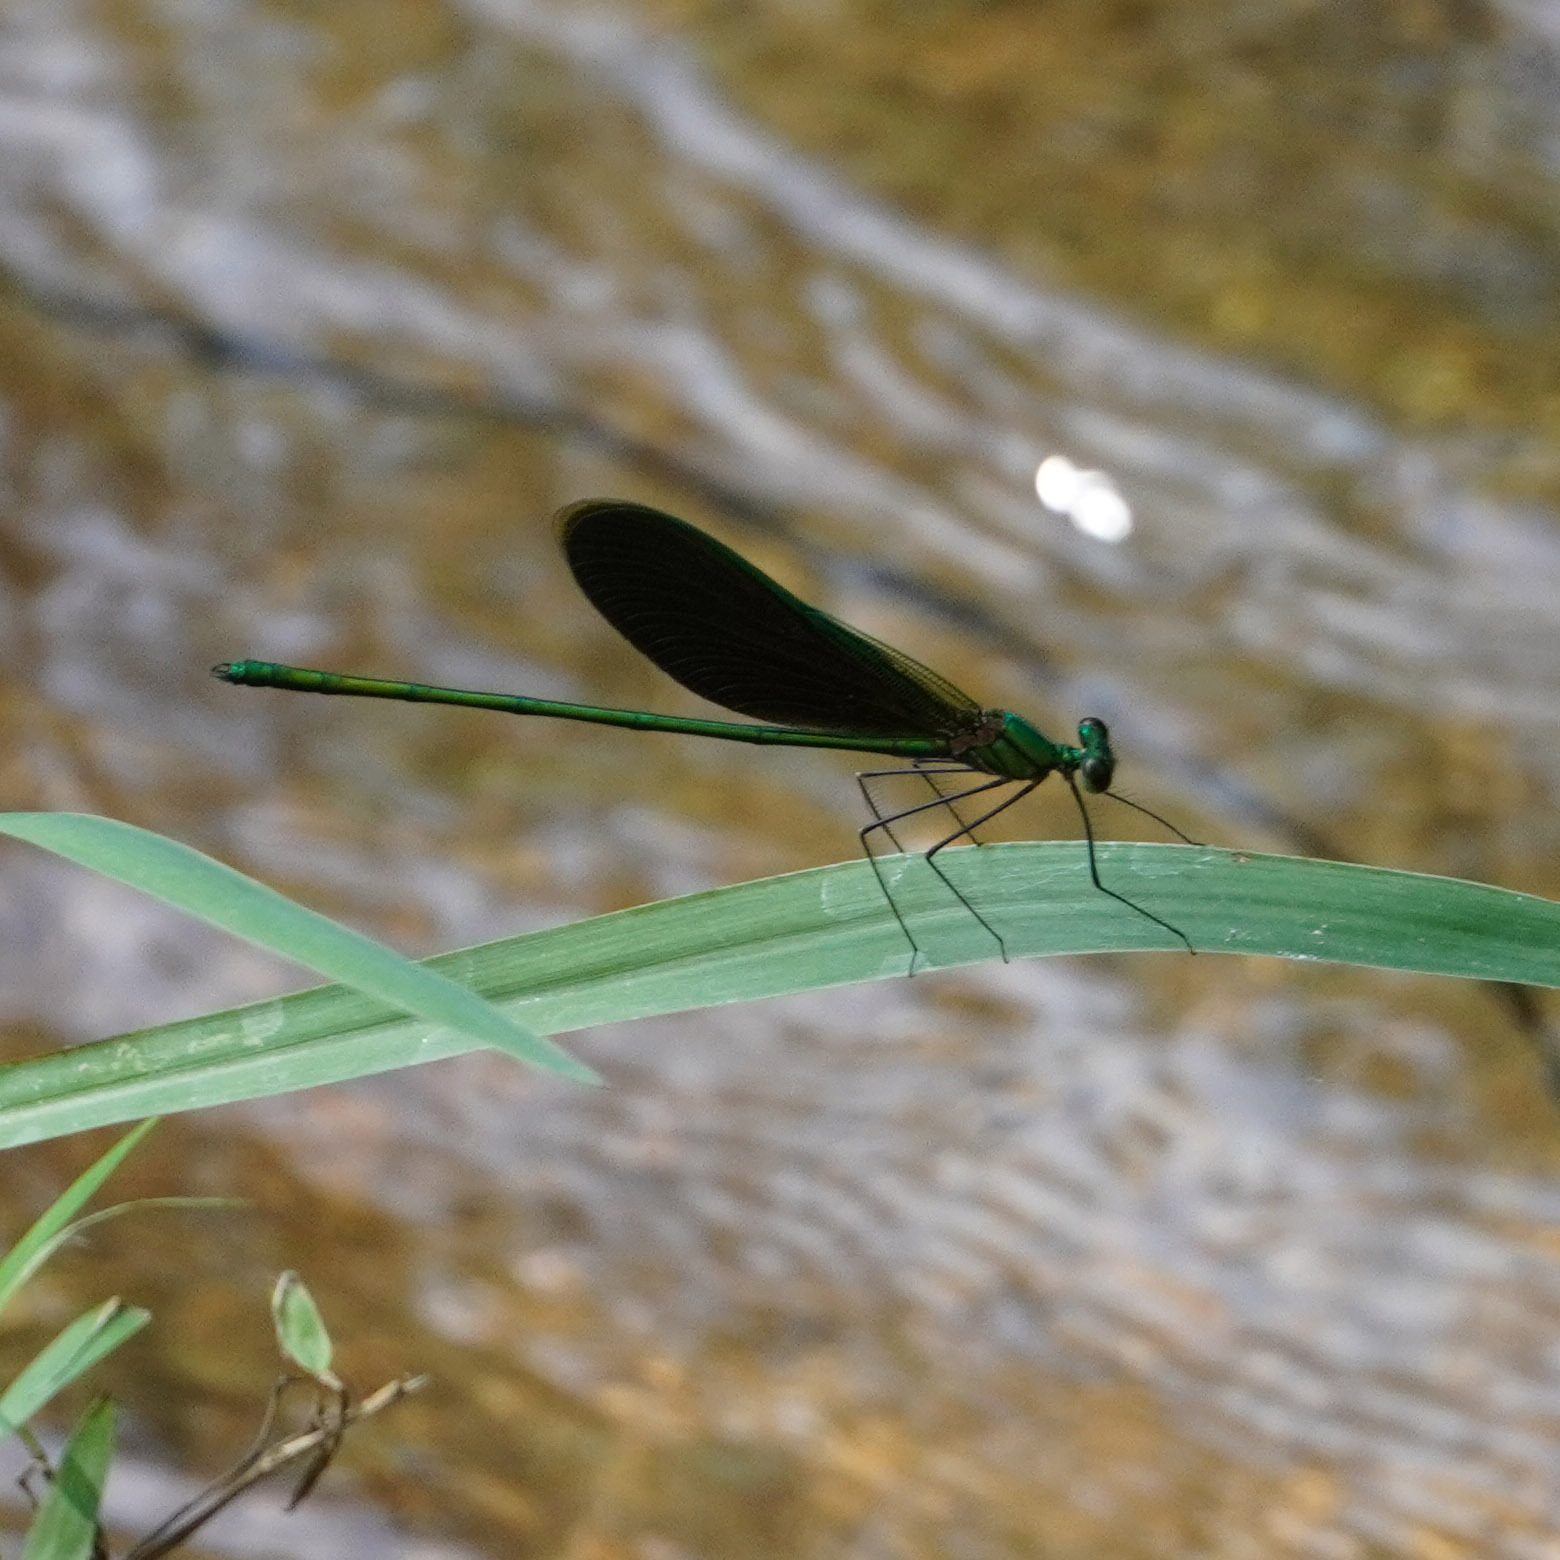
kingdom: Animalia
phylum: Arthropoda
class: Insecta
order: Odonata
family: Calopterygidae
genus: Neurobasis
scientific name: Neurobasis chinensis
